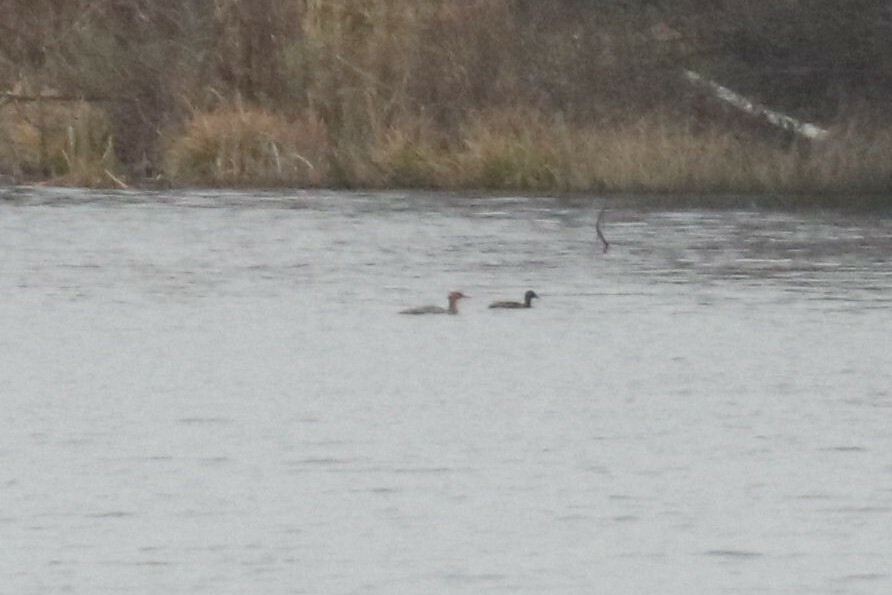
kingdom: Animalia
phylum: Chordata
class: Aves
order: Anseriformes
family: Anatidae
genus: Mergus
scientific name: Mergus serrator
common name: Red-breasted merganser
